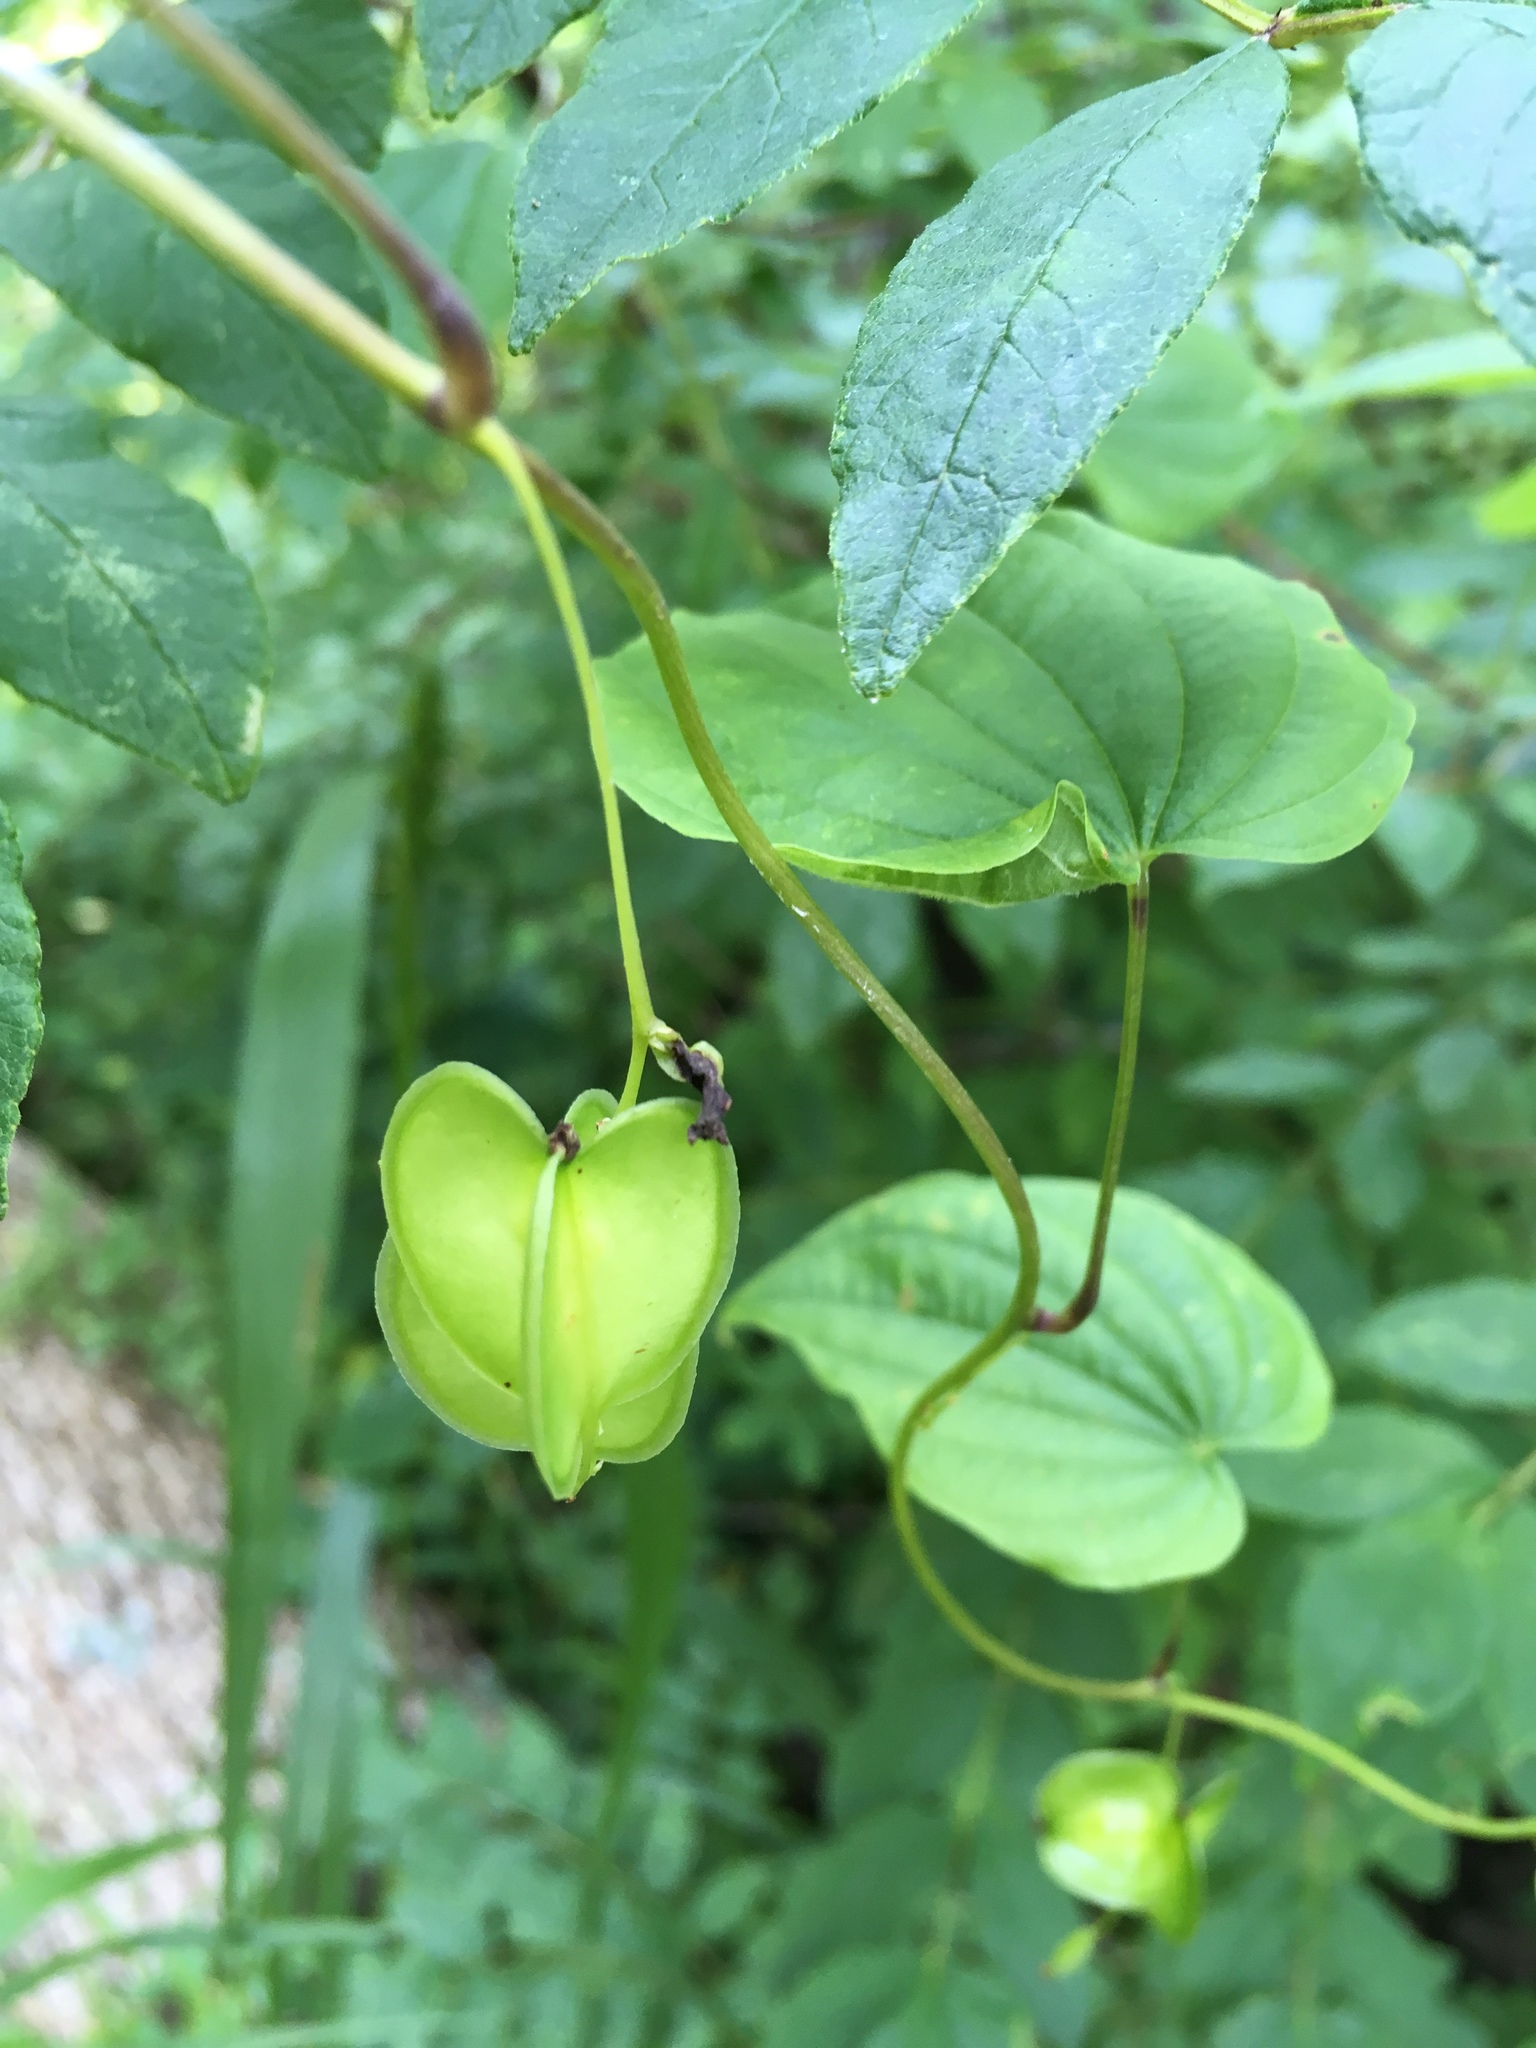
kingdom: Plantae
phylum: Tracheophyta
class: Liliopsida
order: Dioscoreales
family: Dioscoreaceae
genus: Dioscorea
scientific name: Dioscorea villosa
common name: Wild yam
